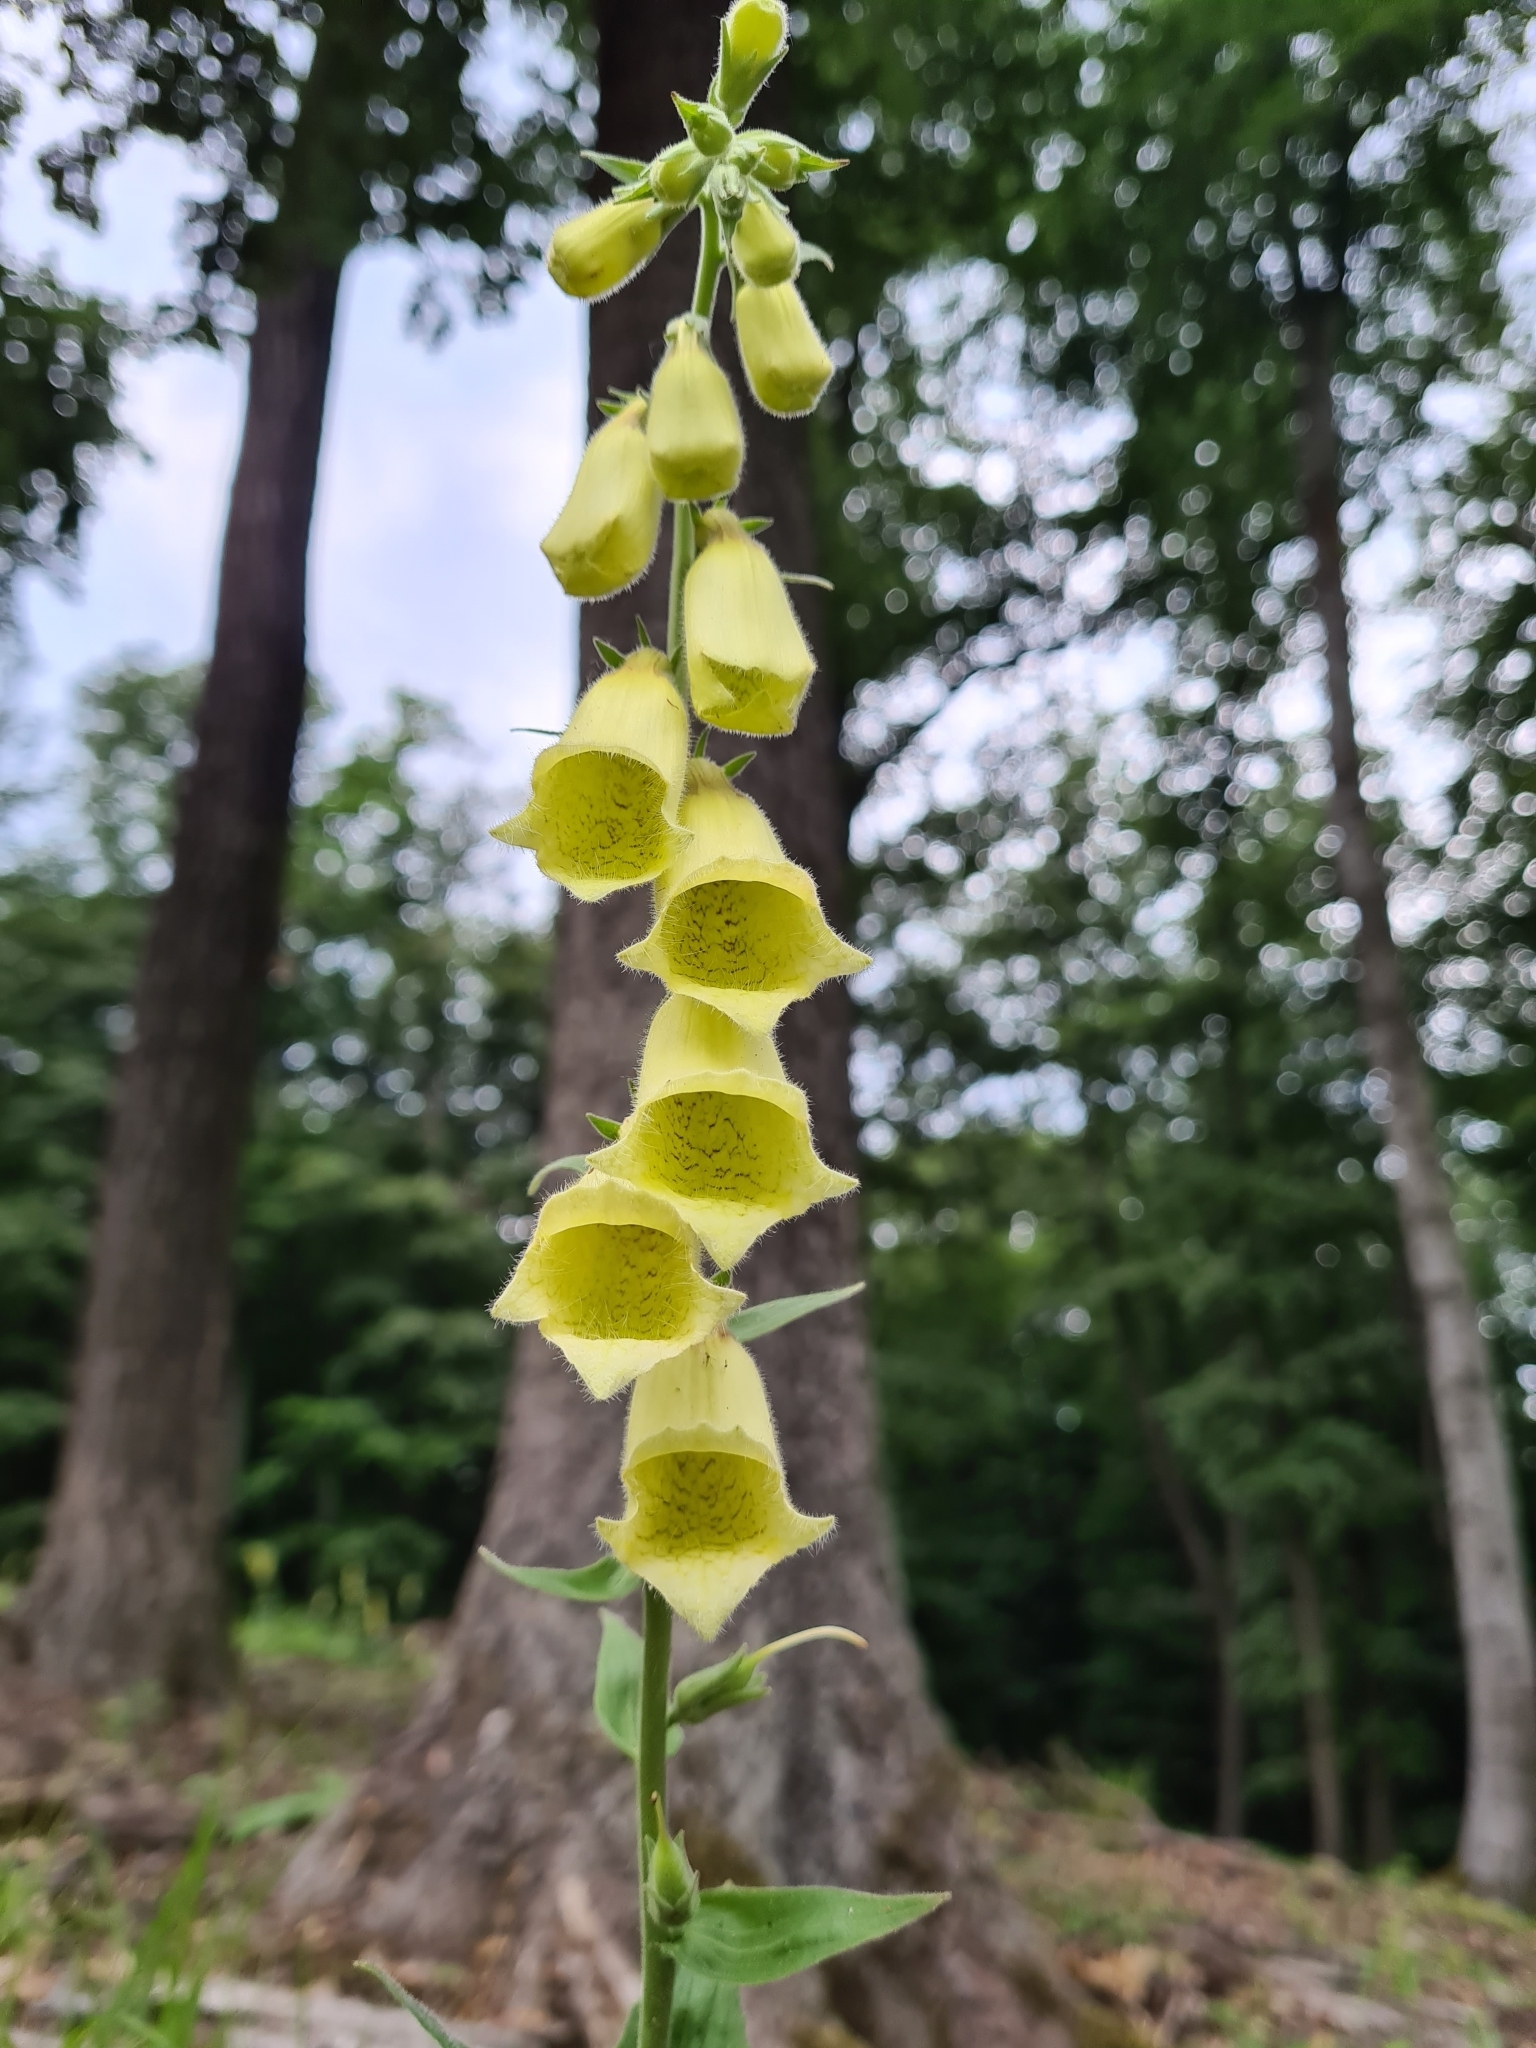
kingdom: Plantae
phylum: Tracheophyta
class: Magnoliopsida
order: Lamiales
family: Plantaginaceae
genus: Digitalis
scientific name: Digitalis grandiflora
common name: Yellow foxglove
